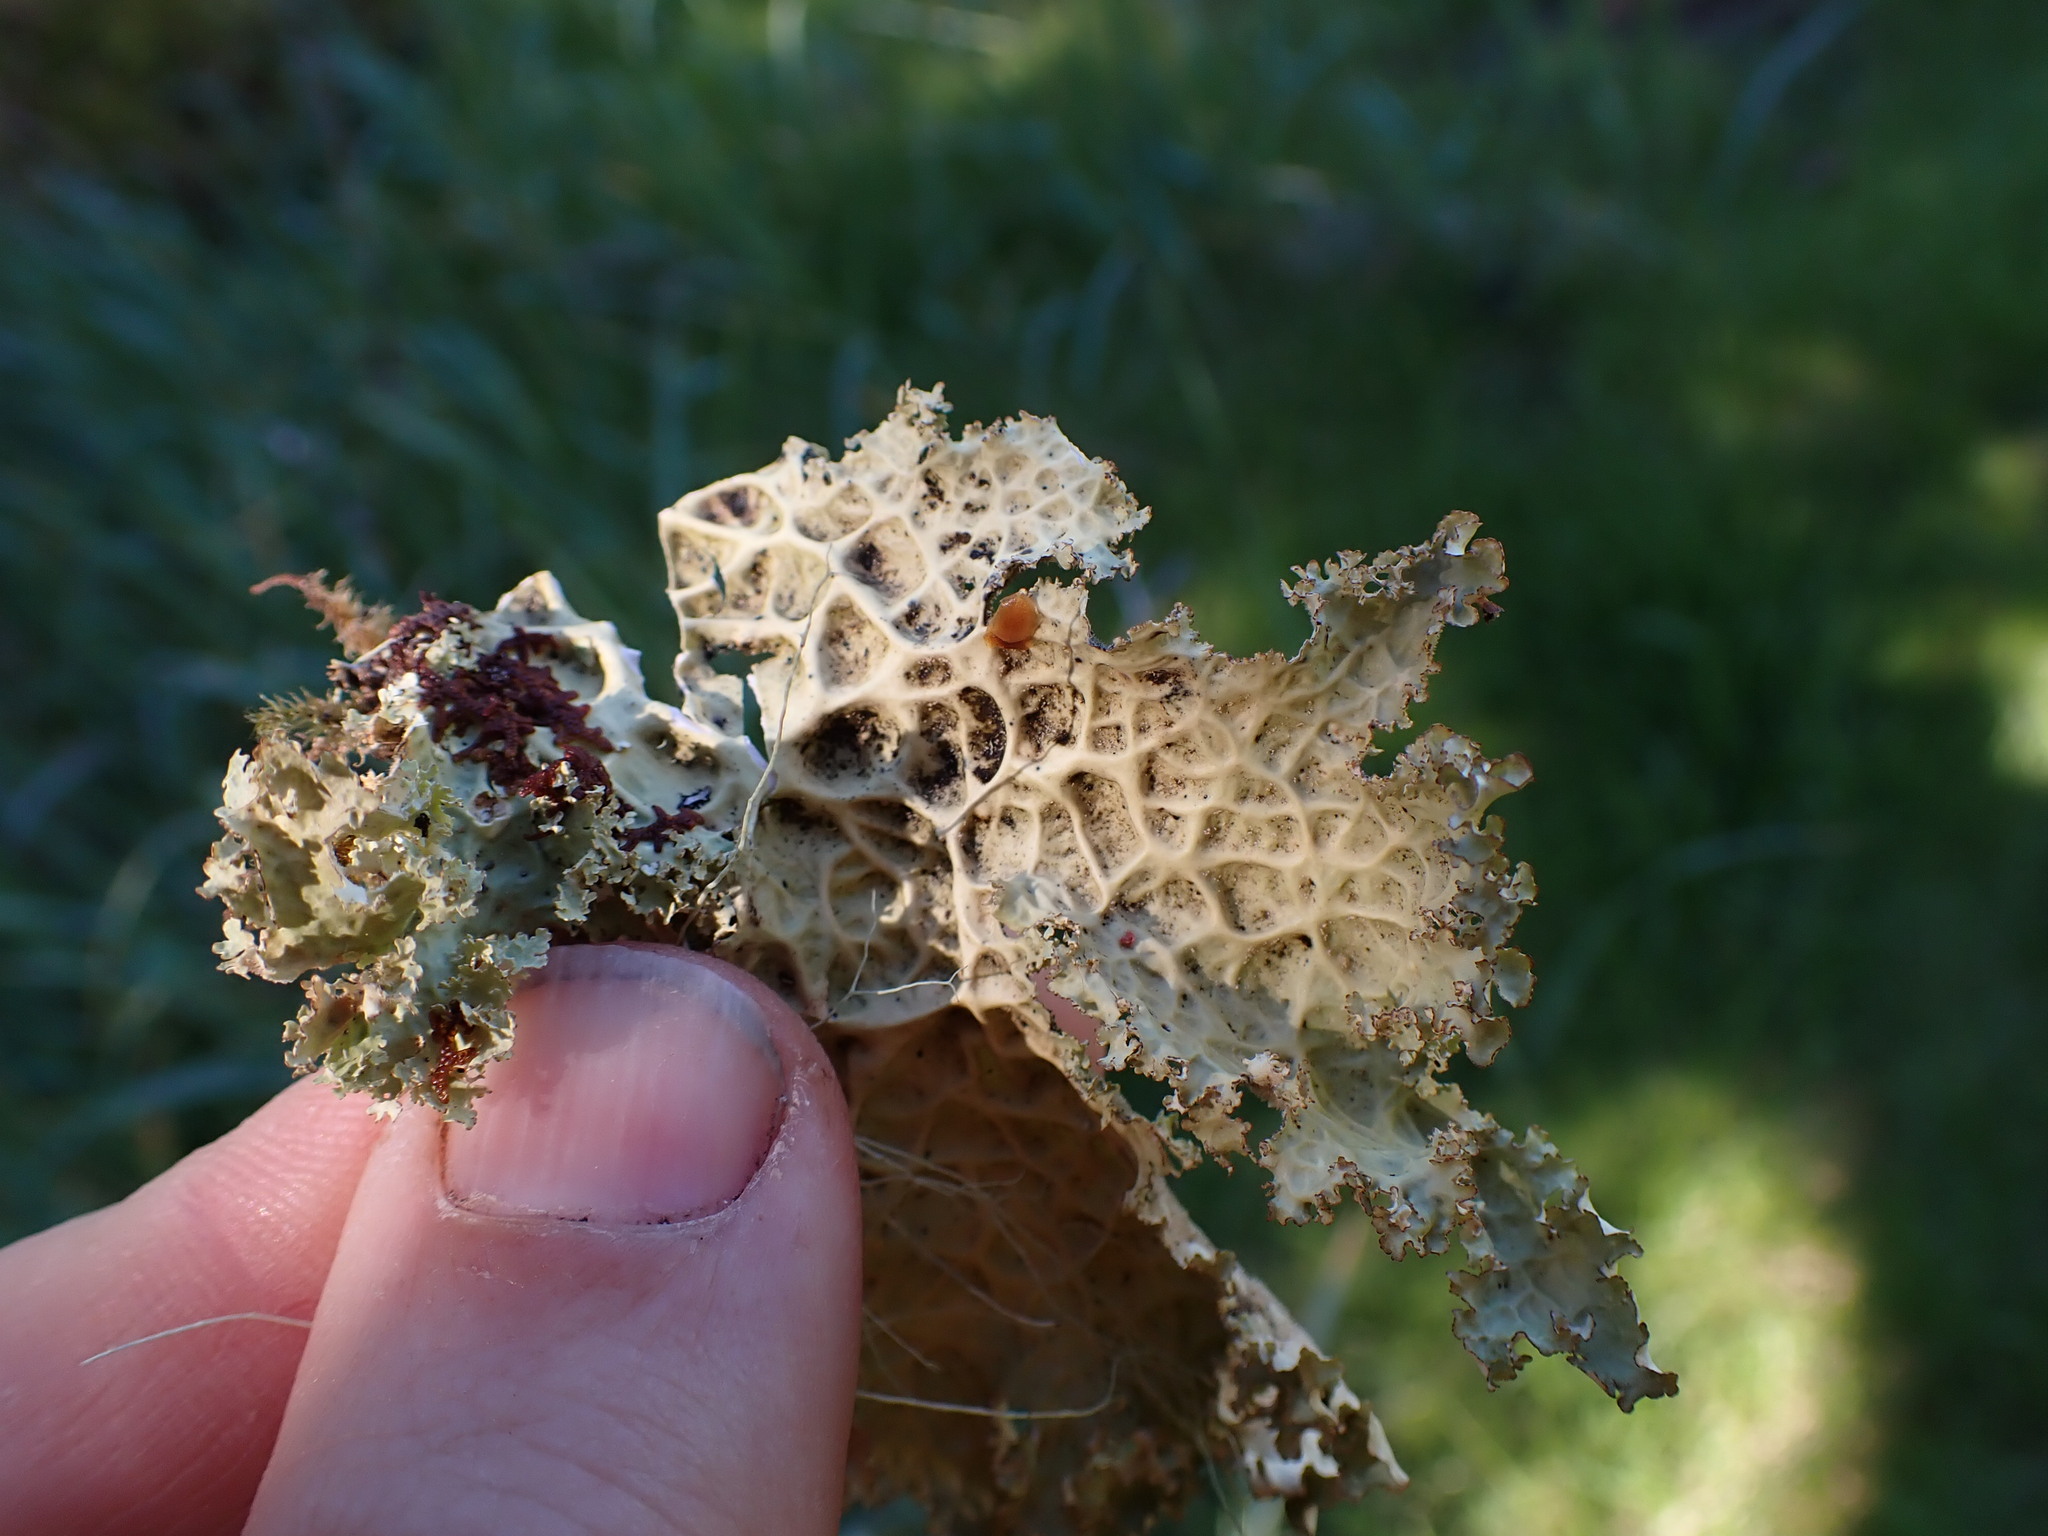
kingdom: Fungi
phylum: Ascomycota
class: Lecanoromycetes
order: Peltigerales
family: Lobariaceae
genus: Lobaria
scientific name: Lobaria oregana
